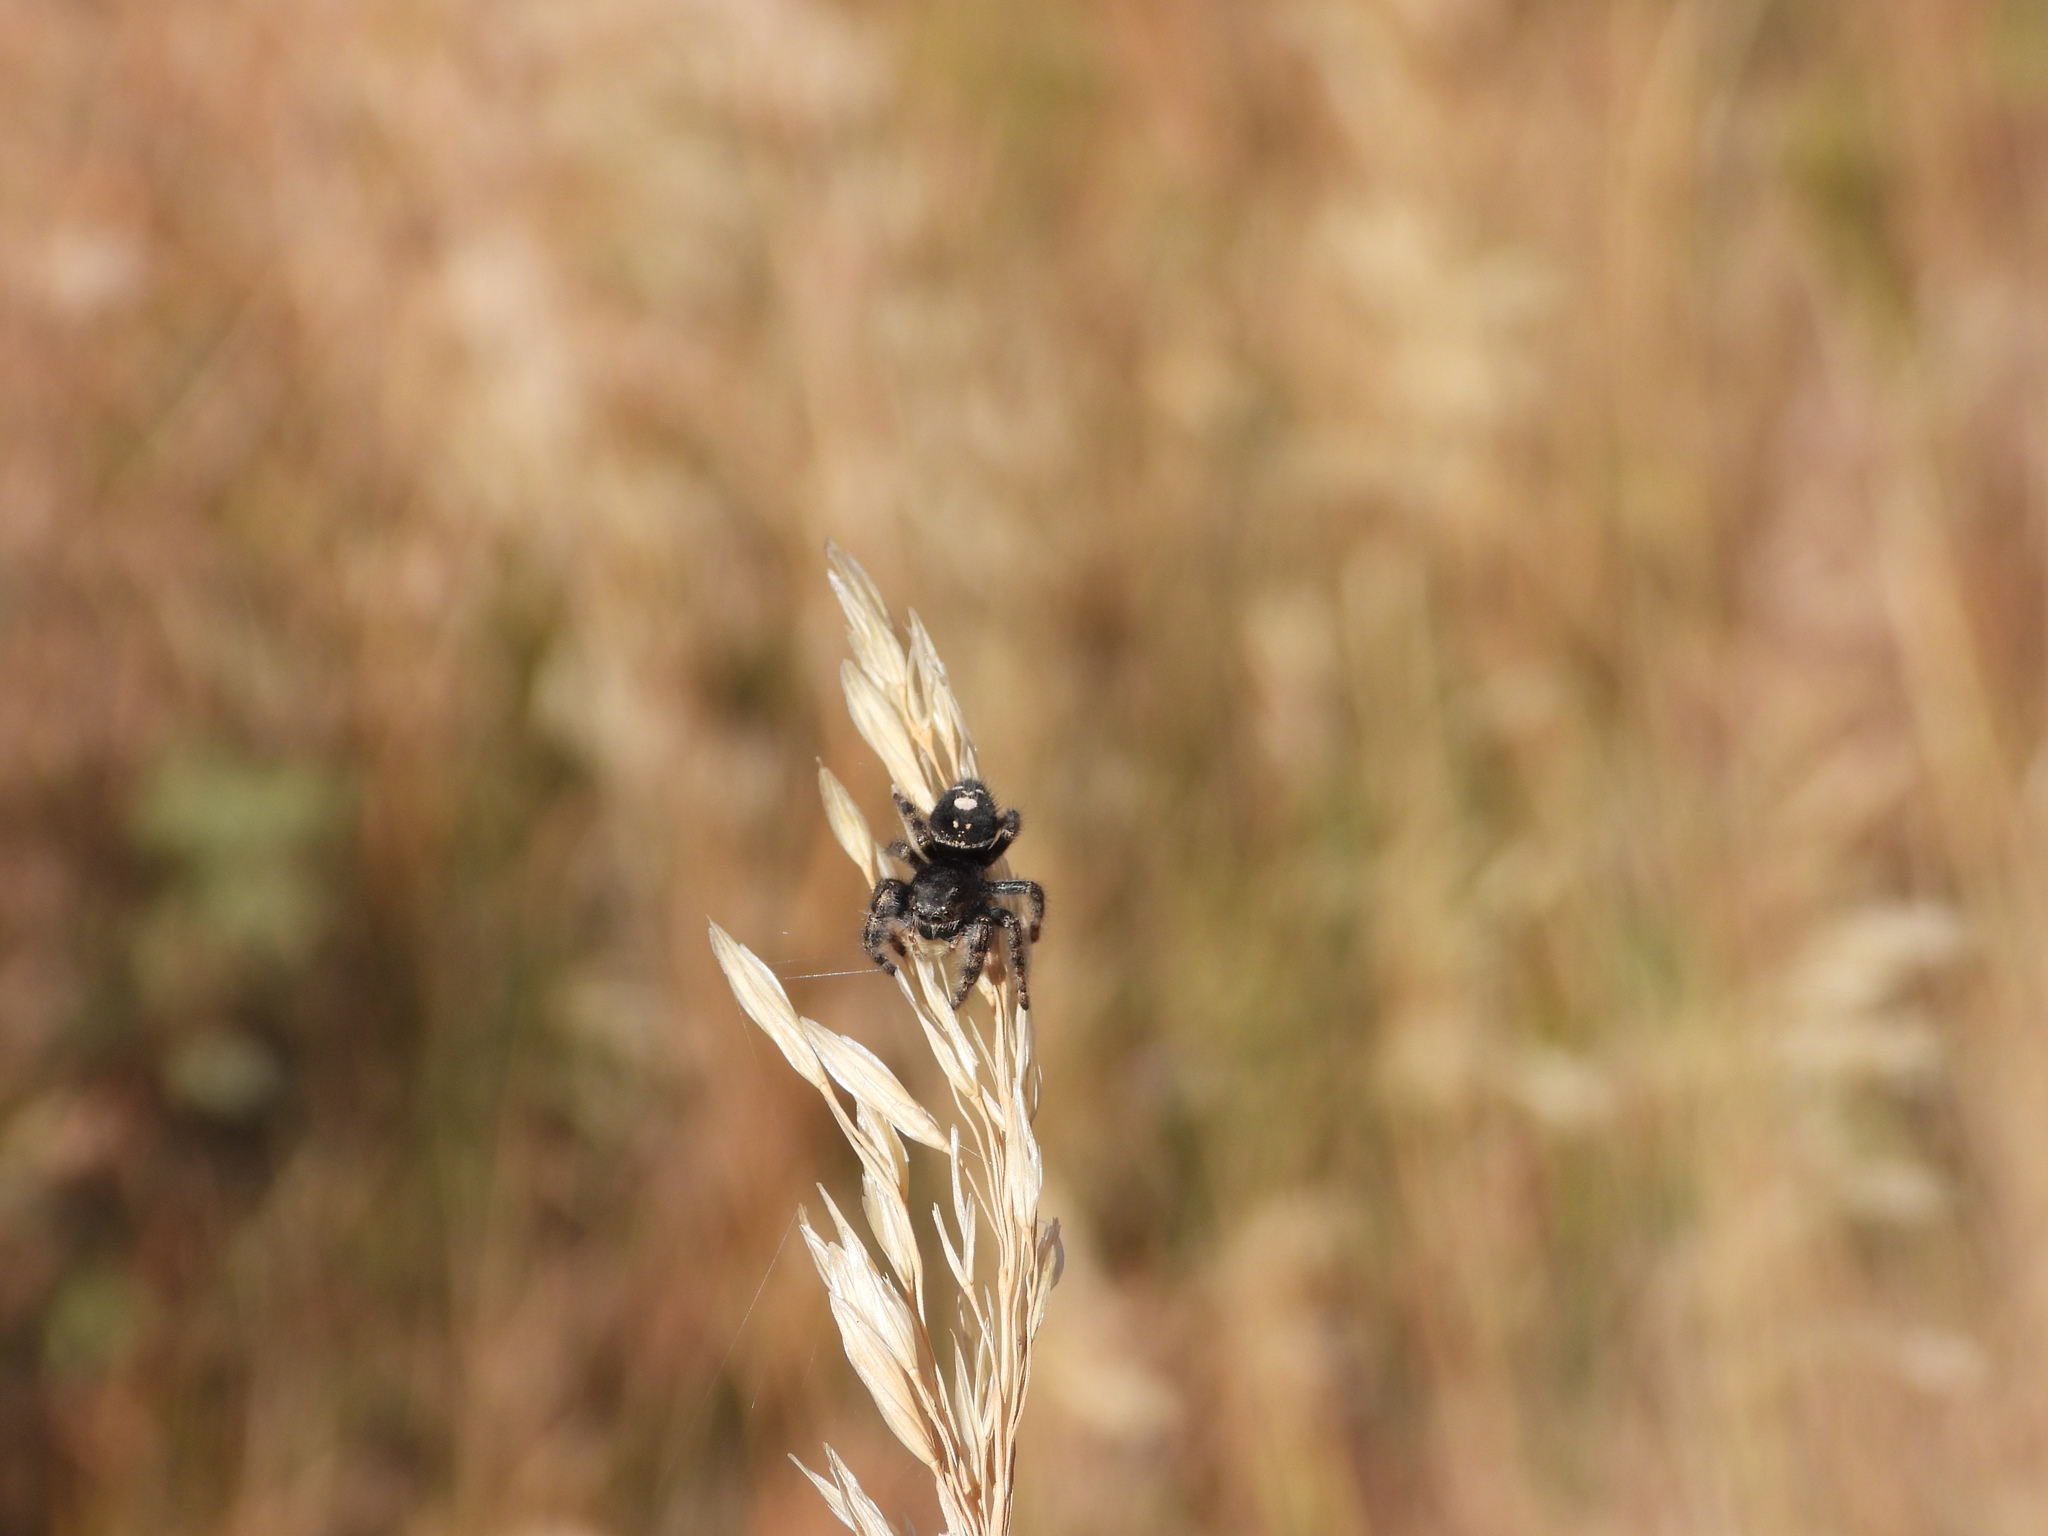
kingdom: Animalia
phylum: Arthropoda
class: Arachnida
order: Araneae
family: Salticidae
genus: Phidippus
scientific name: Phidippus audax
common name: Bold jumper
